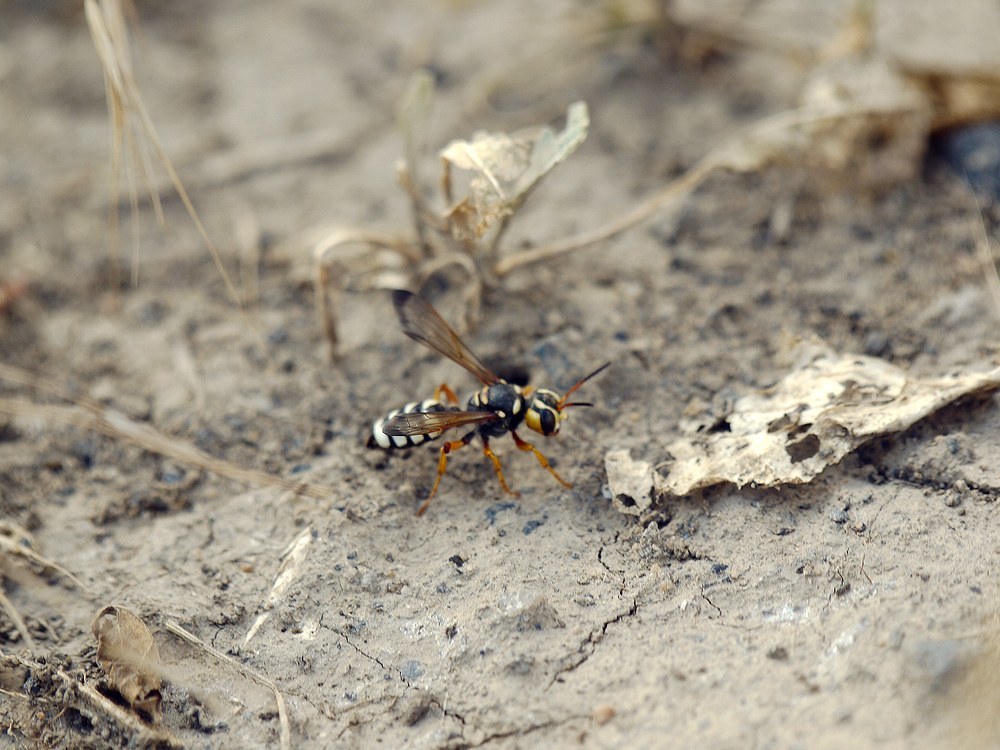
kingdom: Animalia
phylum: Arthropoda
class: Insecta
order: Hymenoptera
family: Crabronidae
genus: Cerceris
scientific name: Cerceris tuberculata
